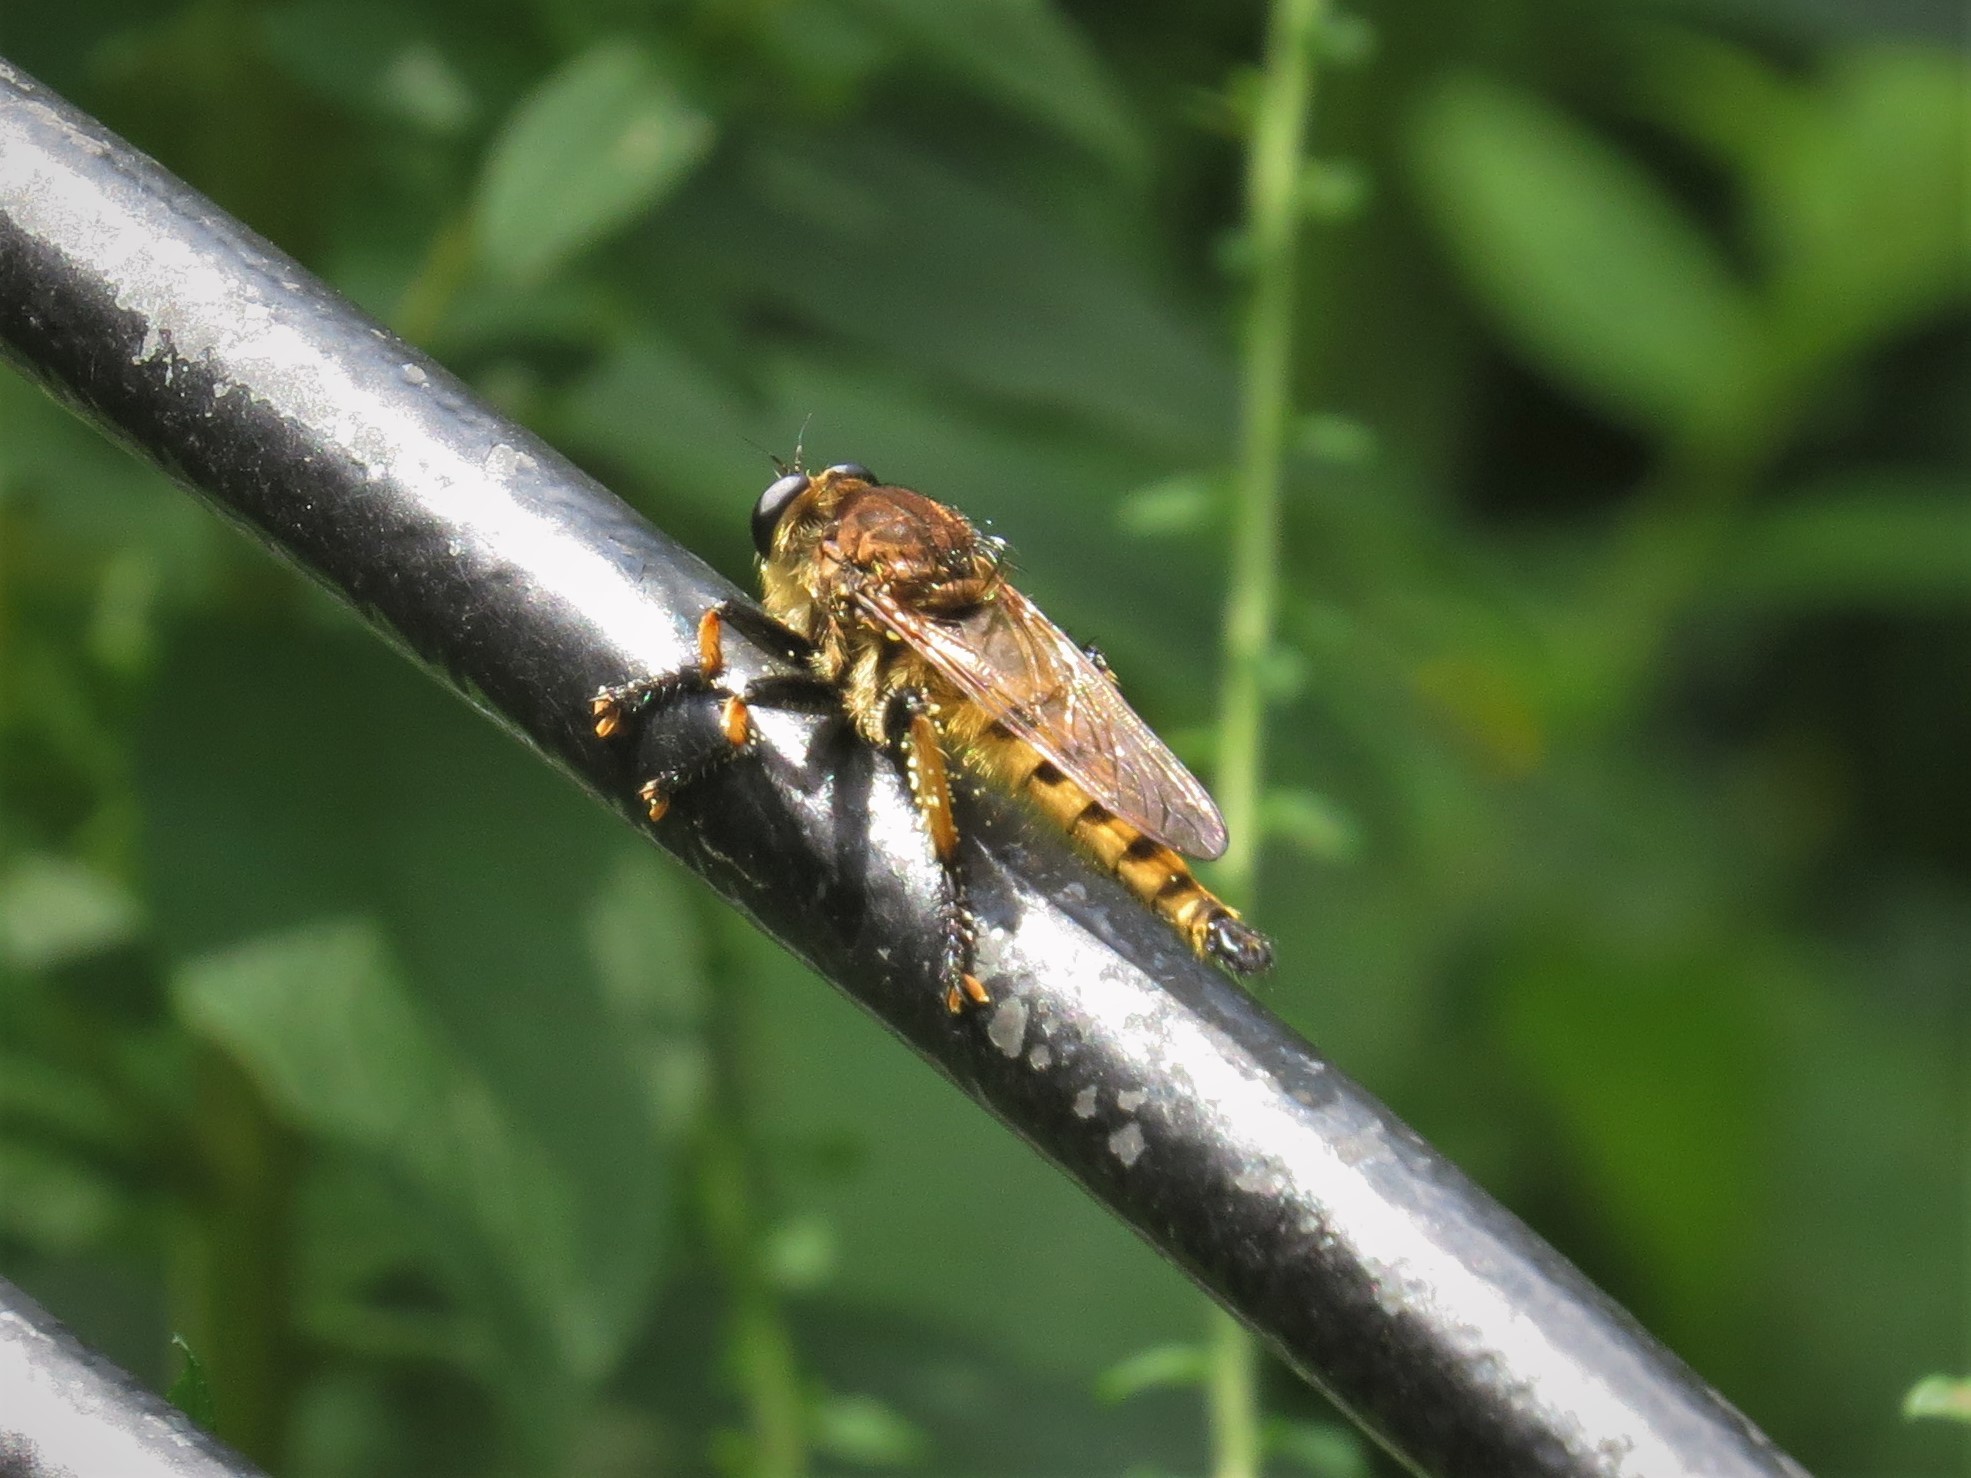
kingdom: Animalia
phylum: Arthropoda
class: Insecta
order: Diptera
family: Asilidae
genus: Promachus
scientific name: Promachus rufipes
